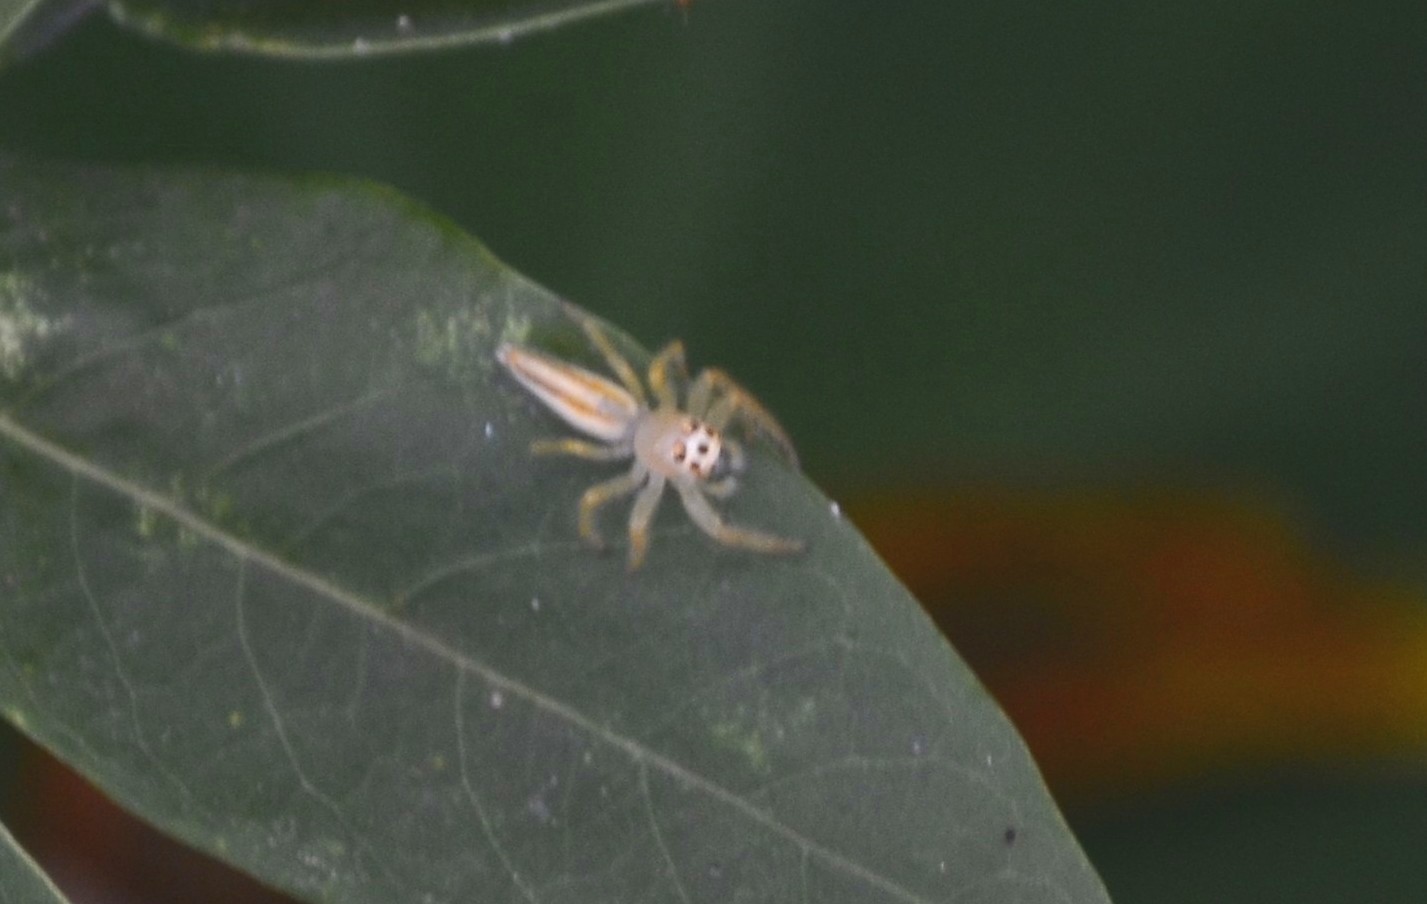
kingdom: Animalia
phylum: Arthropoda
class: Arachnida
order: Araneae
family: Salticidae
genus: Telamonia
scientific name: Telamonia dimidiata
